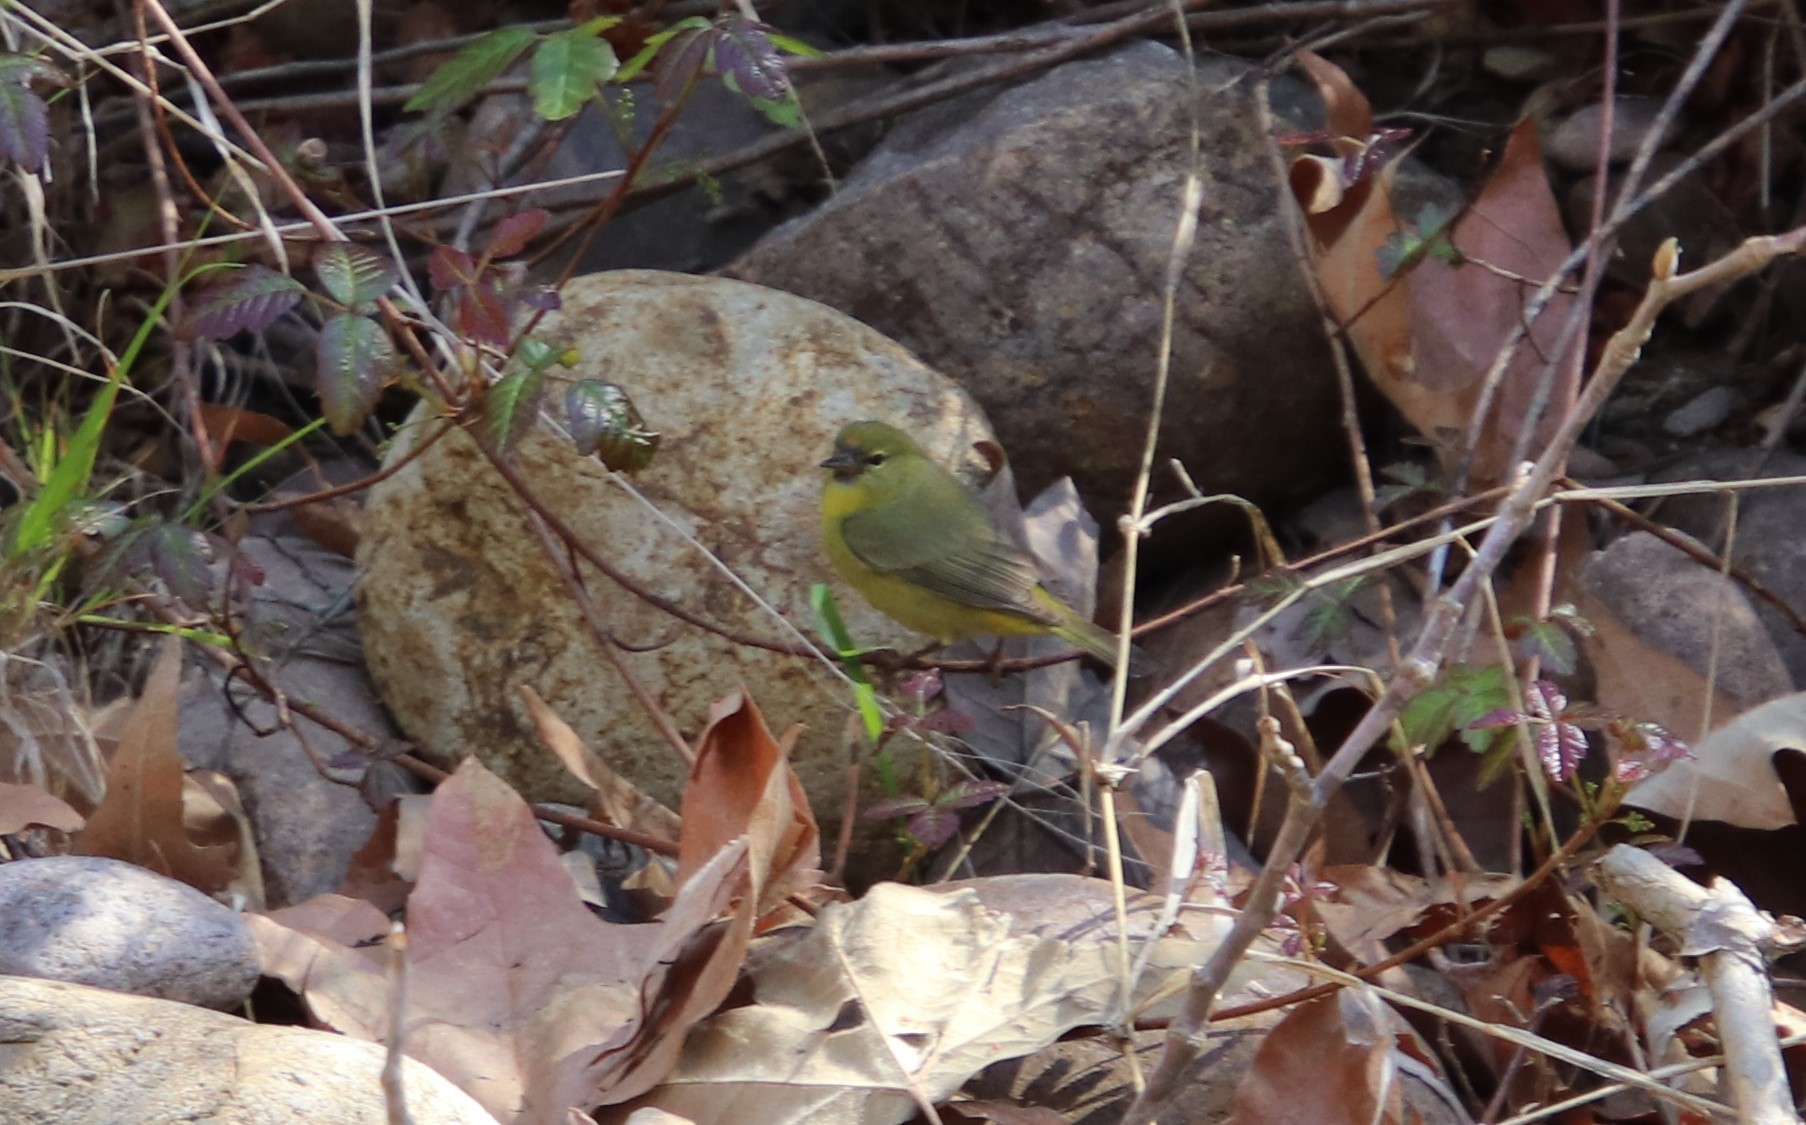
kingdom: Animalia
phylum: Chordata
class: Aves
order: Passeriformes
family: Parulidae
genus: Leiothlypis
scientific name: Leiothlypis celata
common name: Orange-crowned warbler
